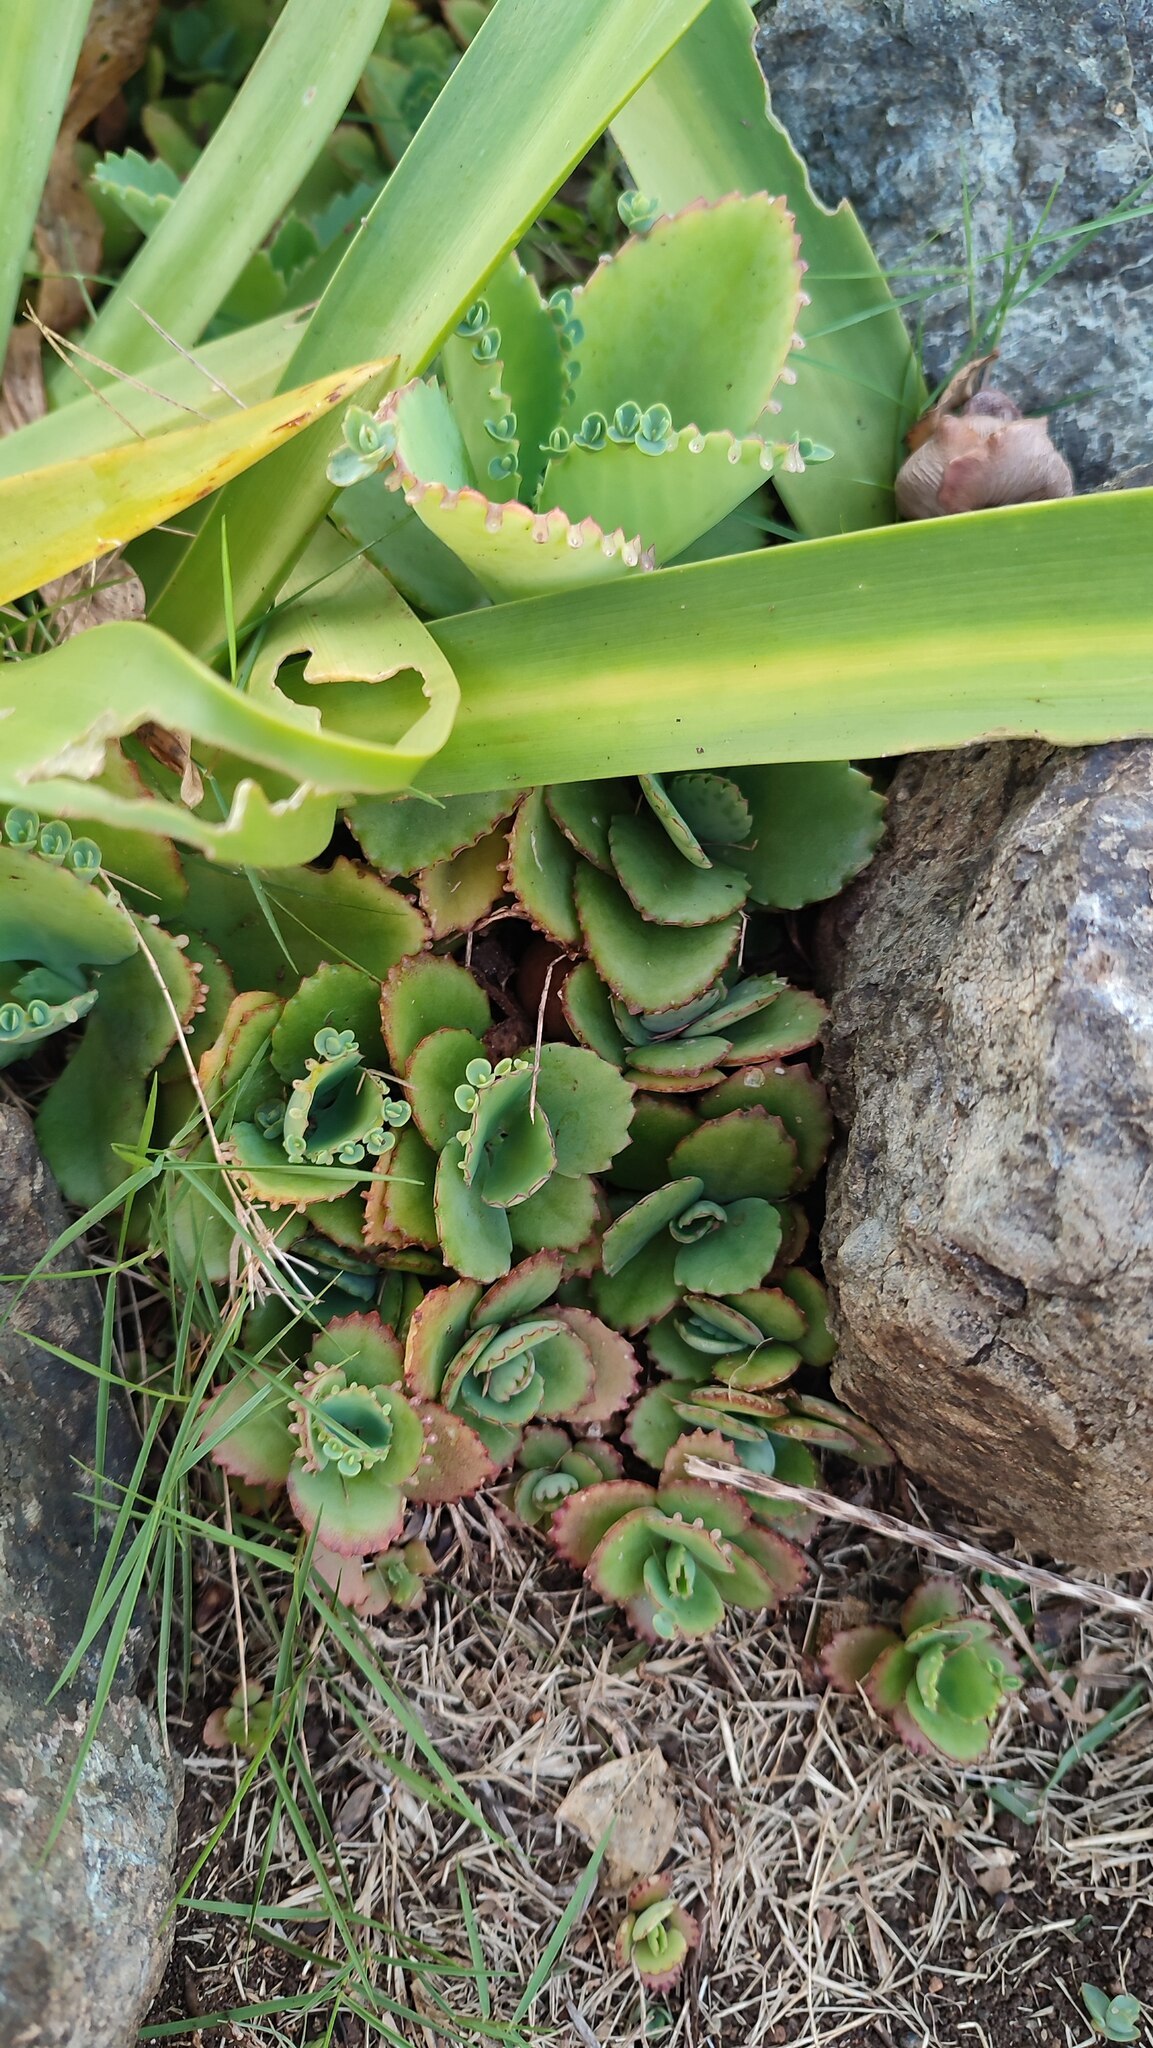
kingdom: Plantae
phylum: Tracheophyta
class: Magnoliopsida
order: Saxifragales
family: Crassulaceae
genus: Kalanchoe
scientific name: Kalanchoe laetivirens
